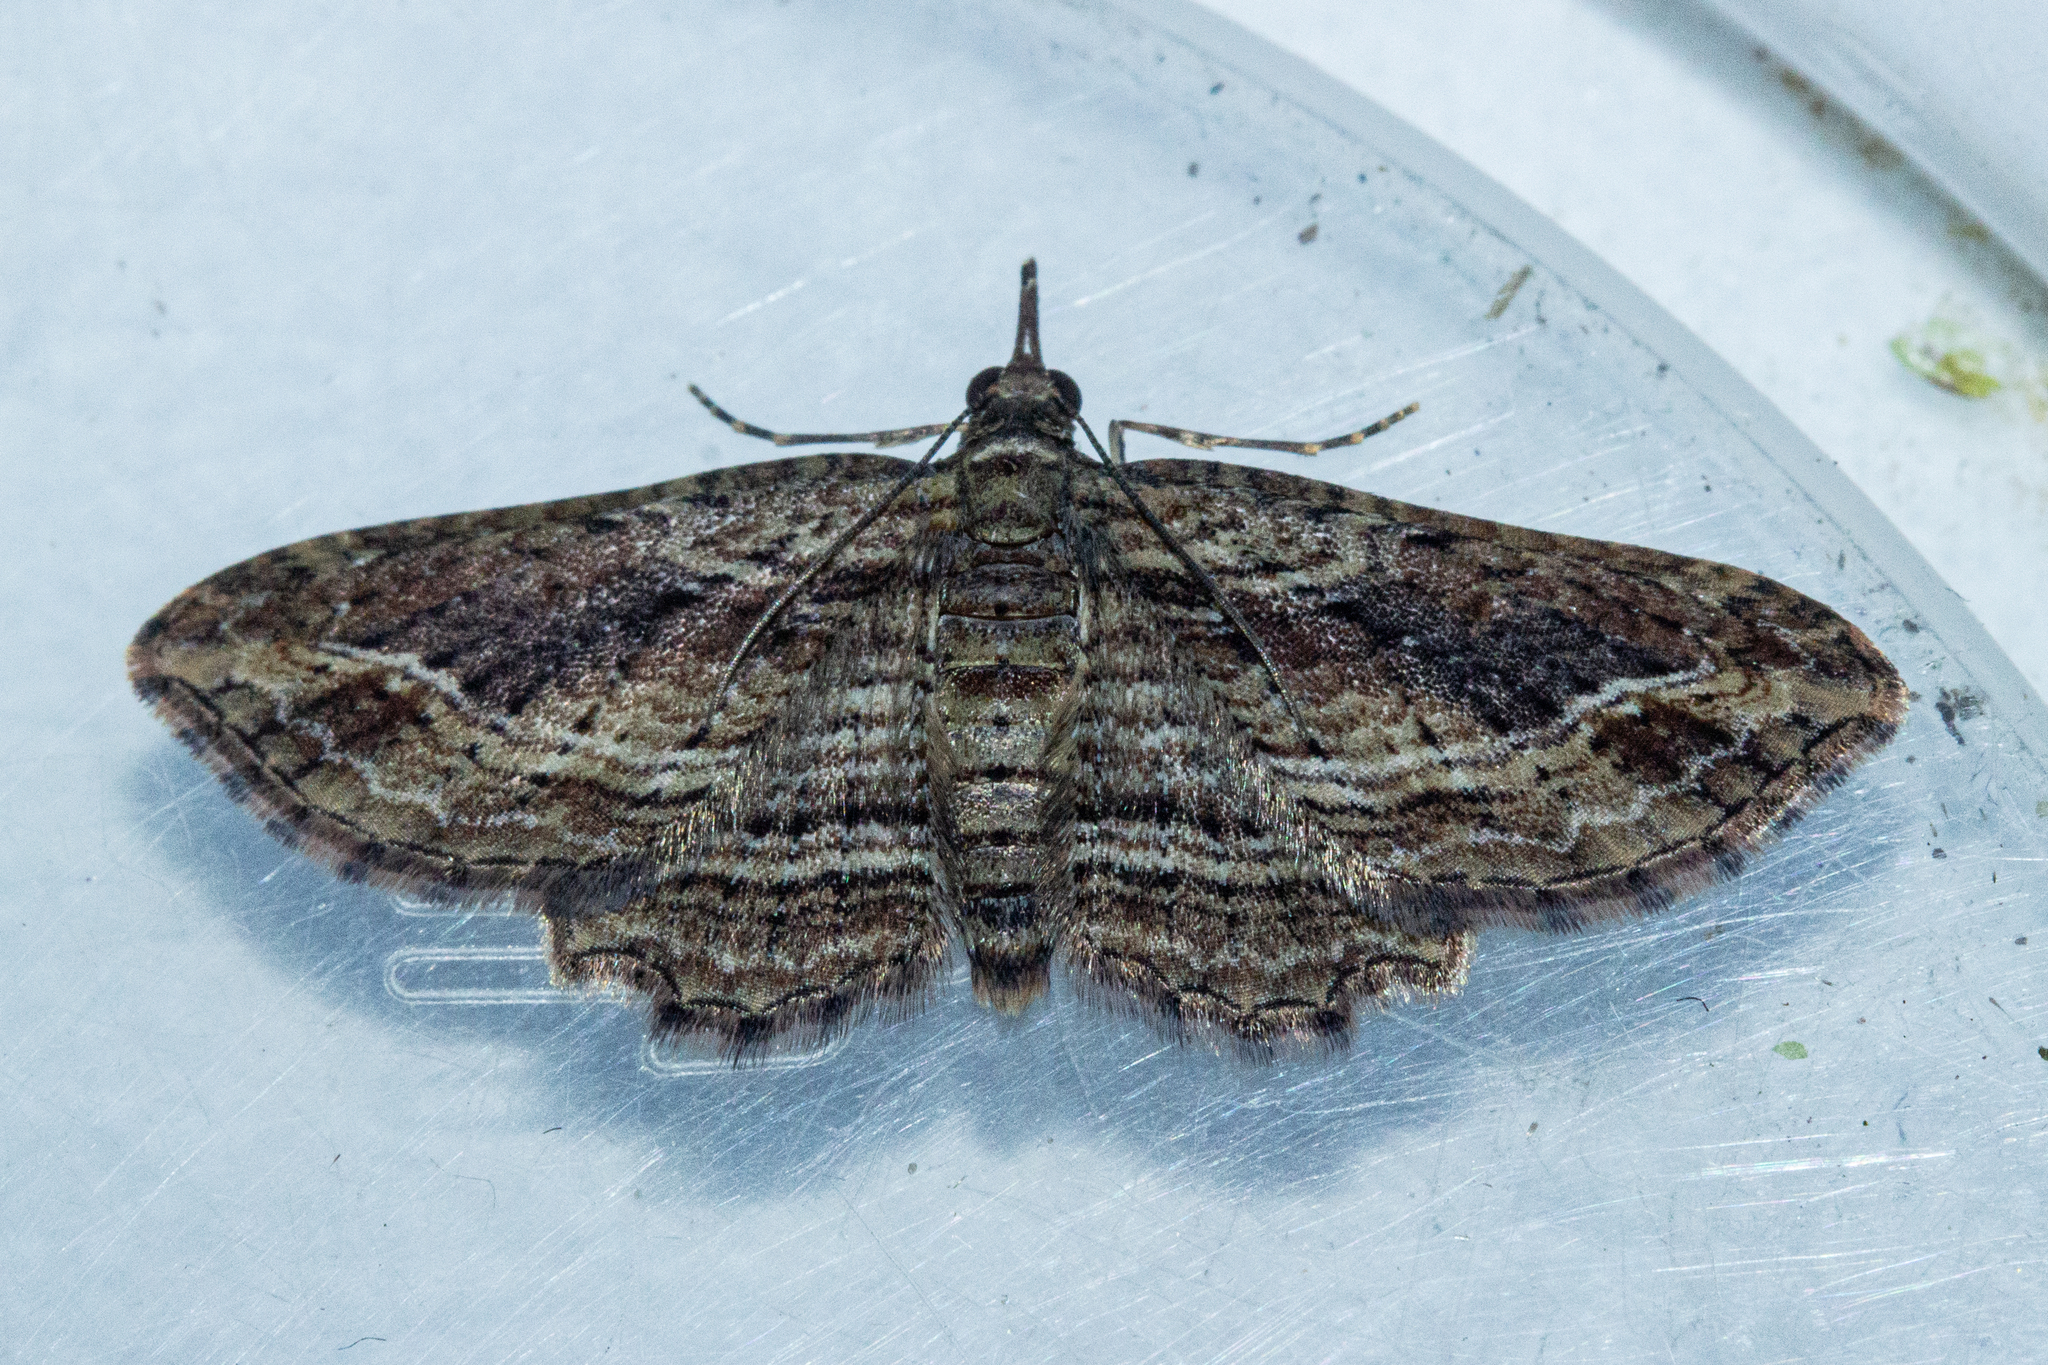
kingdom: Animalia
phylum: Arthropoda
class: Insecta
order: Lepidoptera
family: Geometridae
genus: Chloroclystis
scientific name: Chloroclystis filata
